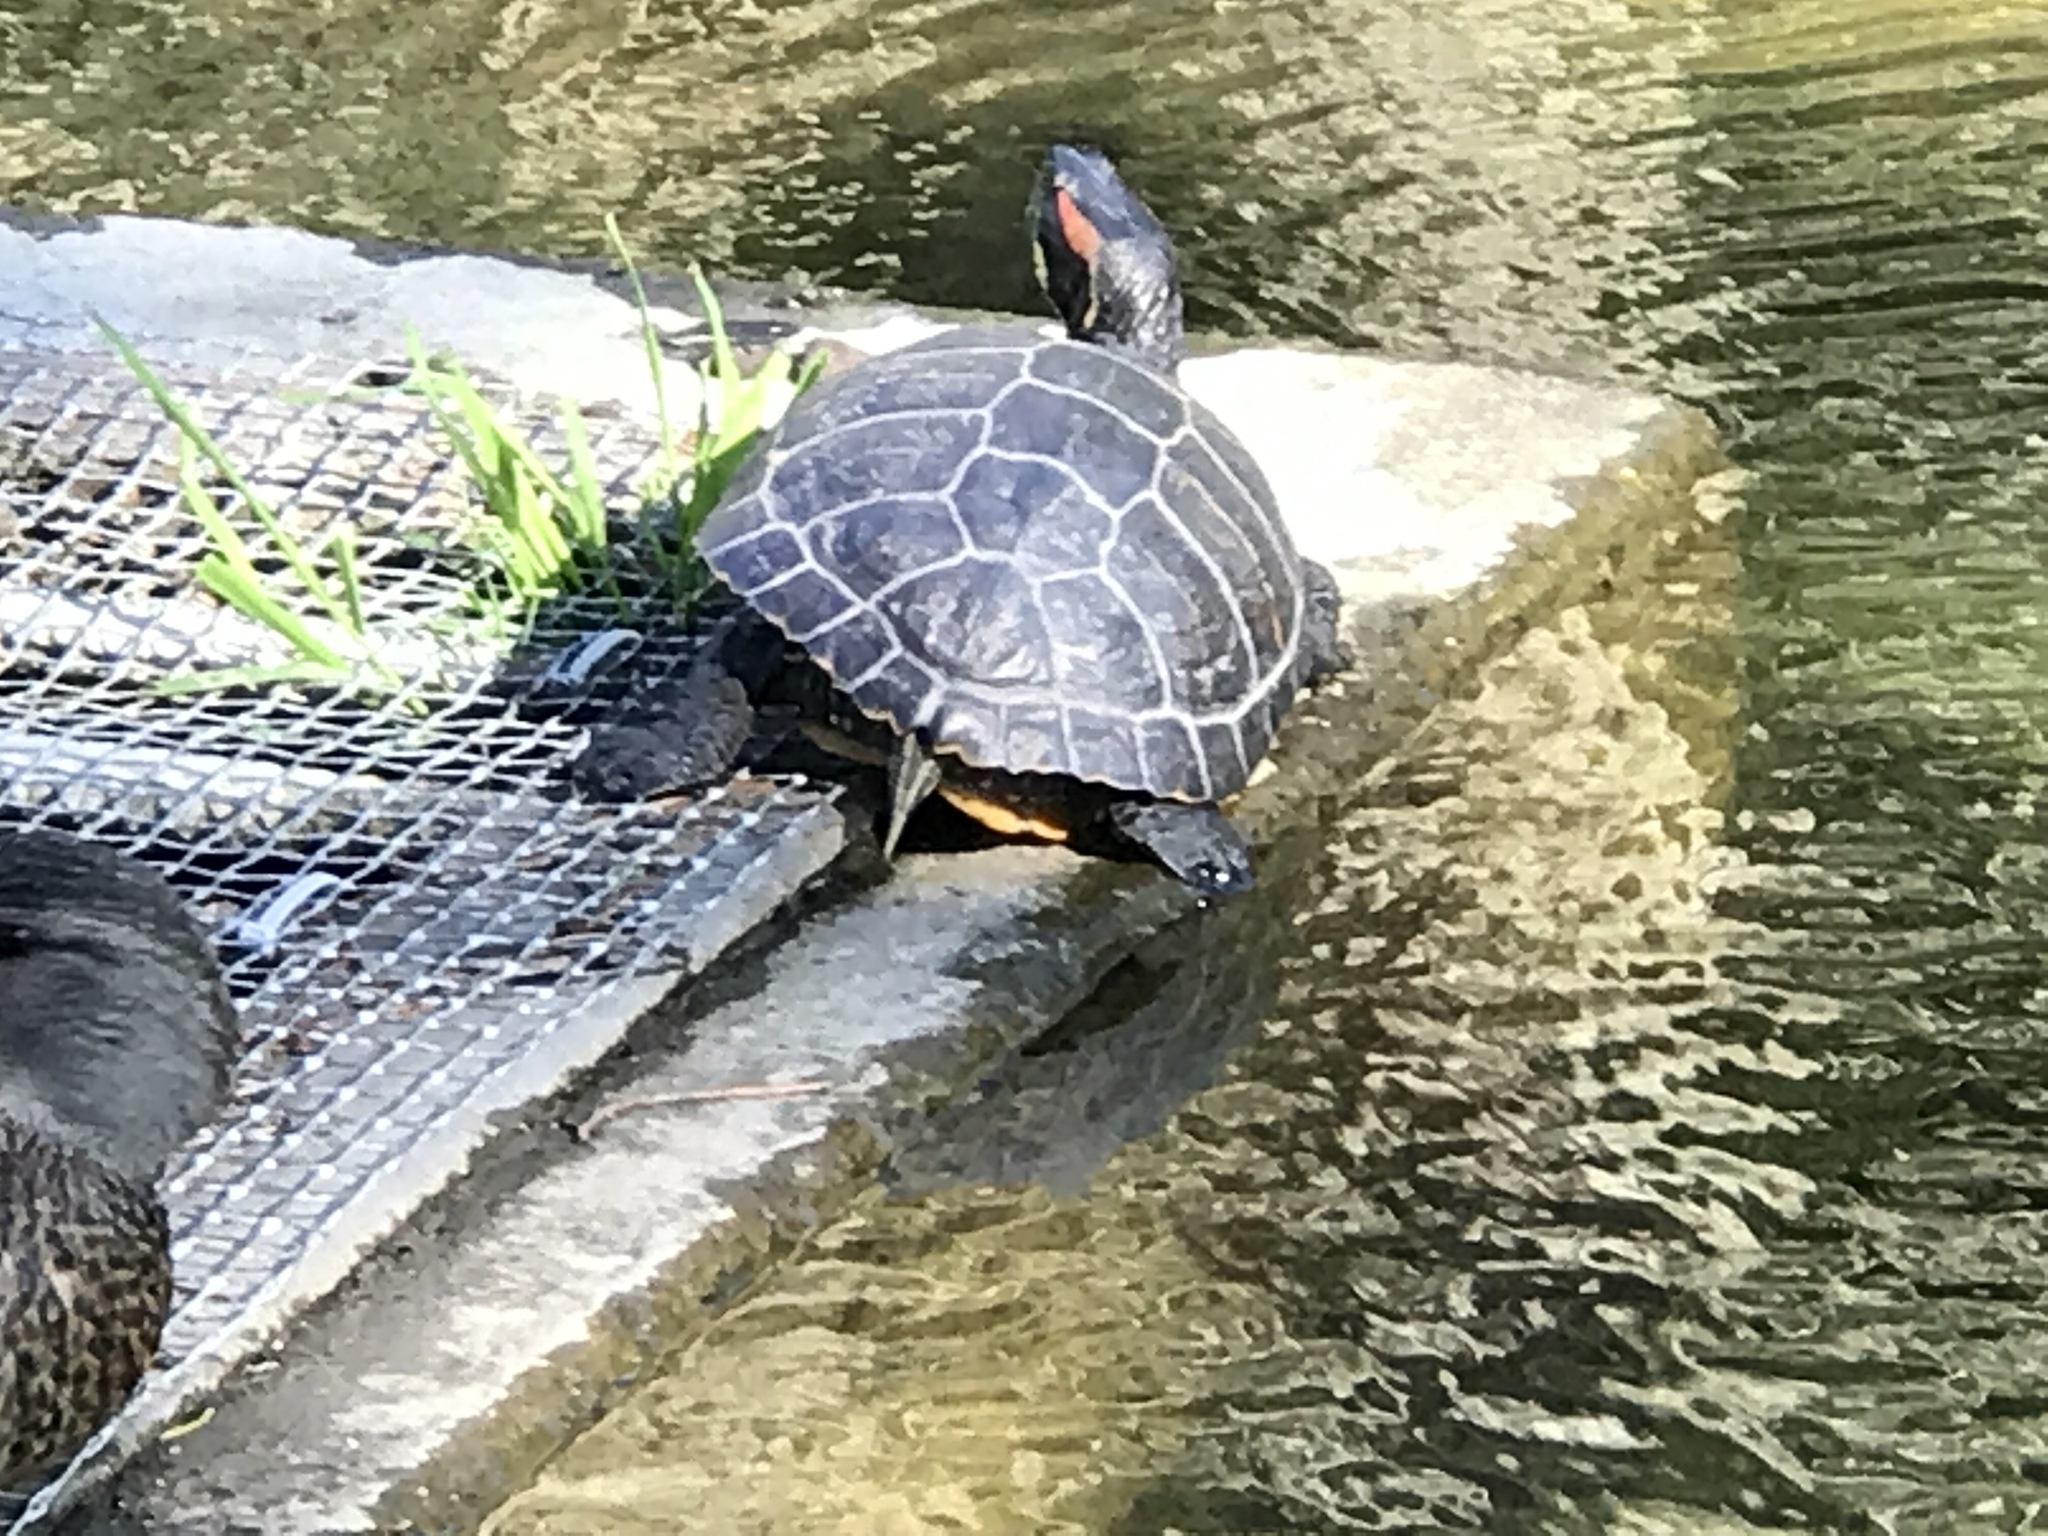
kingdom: Animalia
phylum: Chordata
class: Testudines
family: Emydidae
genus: Trachemys
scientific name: Trachemys scripta
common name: Slider
